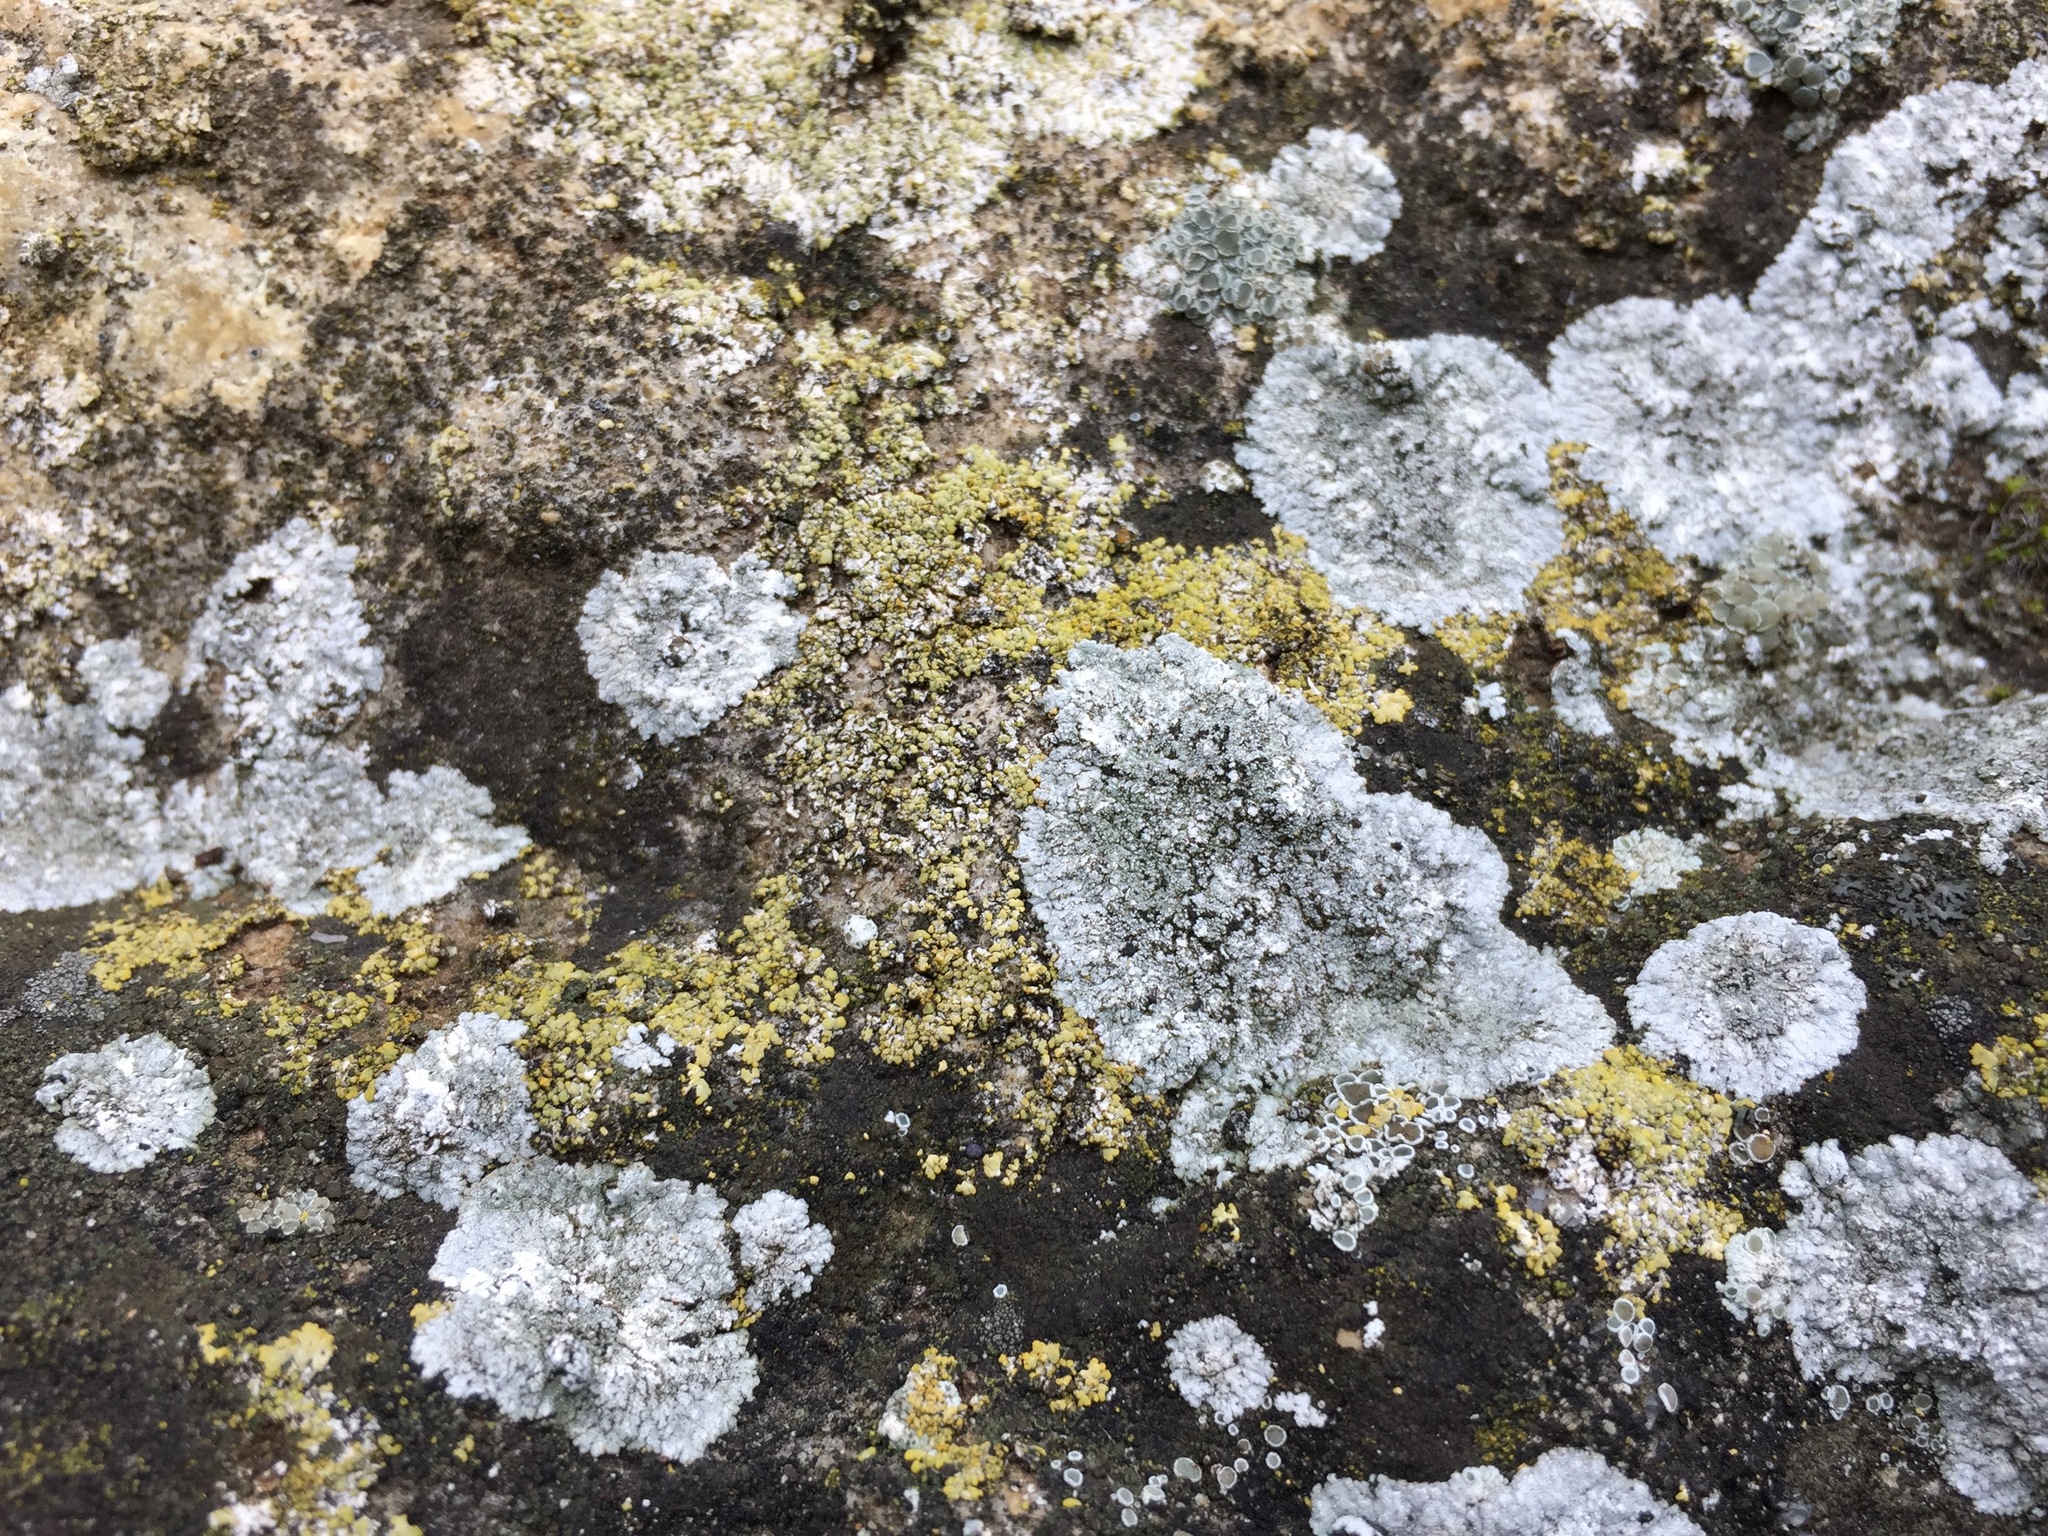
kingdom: Fungi
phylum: Ascomycota
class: Lecanoromycetes
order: Teloschistales
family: Teloschistaceae
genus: Kuettlingeria
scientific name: Kuettlingeria teicholyta
